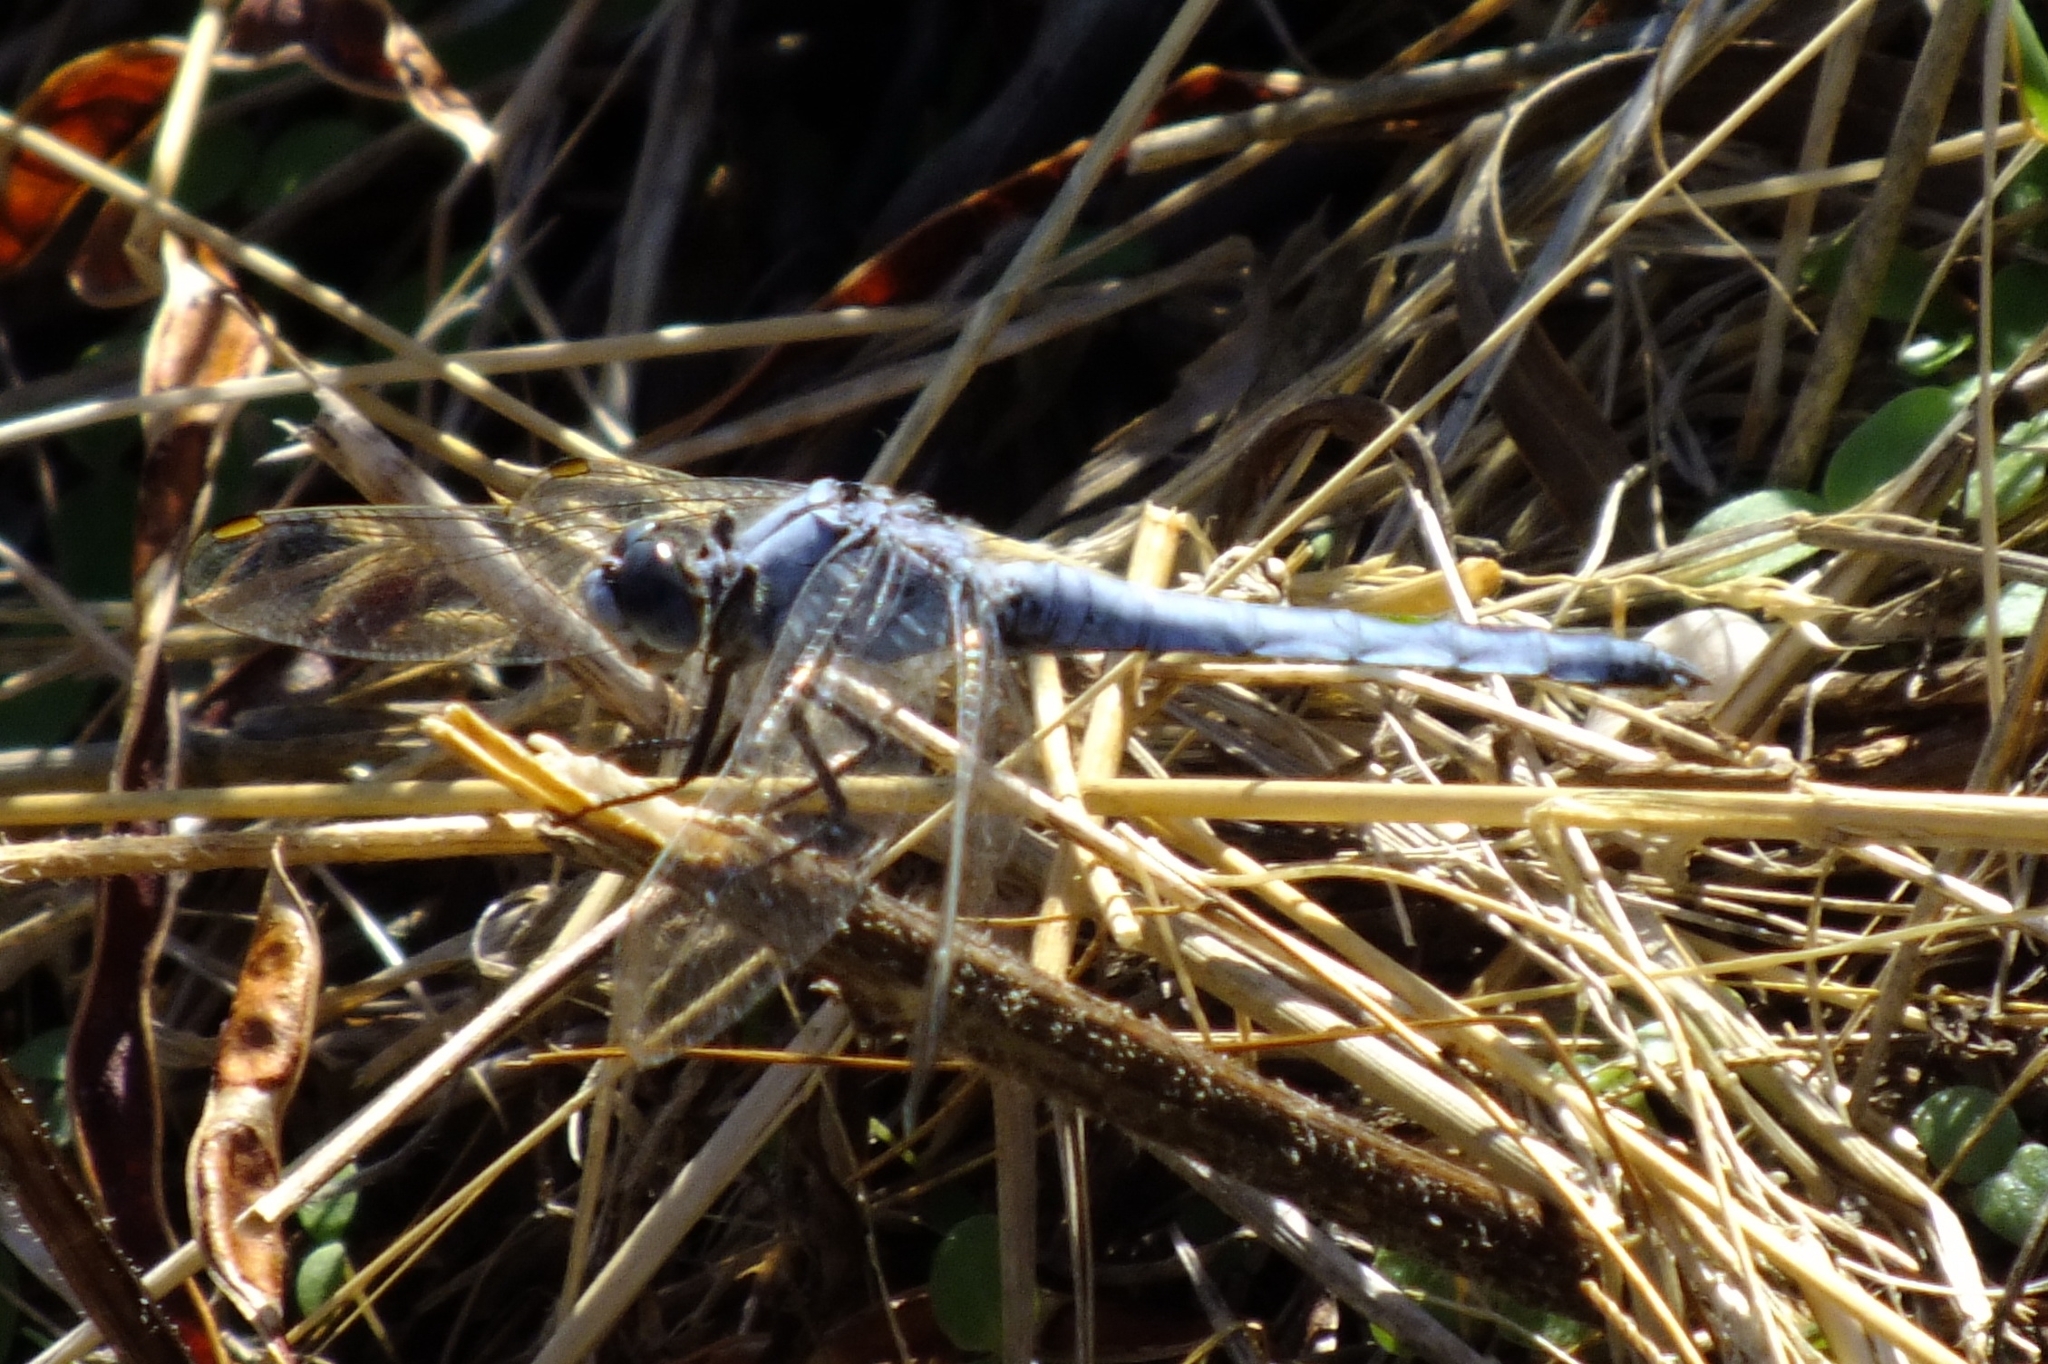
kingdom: Animalia
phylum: Arthropoda
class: Insecta
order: Odonata
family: Libellulidae
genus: Orthetrum
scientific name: Orthetrum brunneum
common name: Southern skimmer
